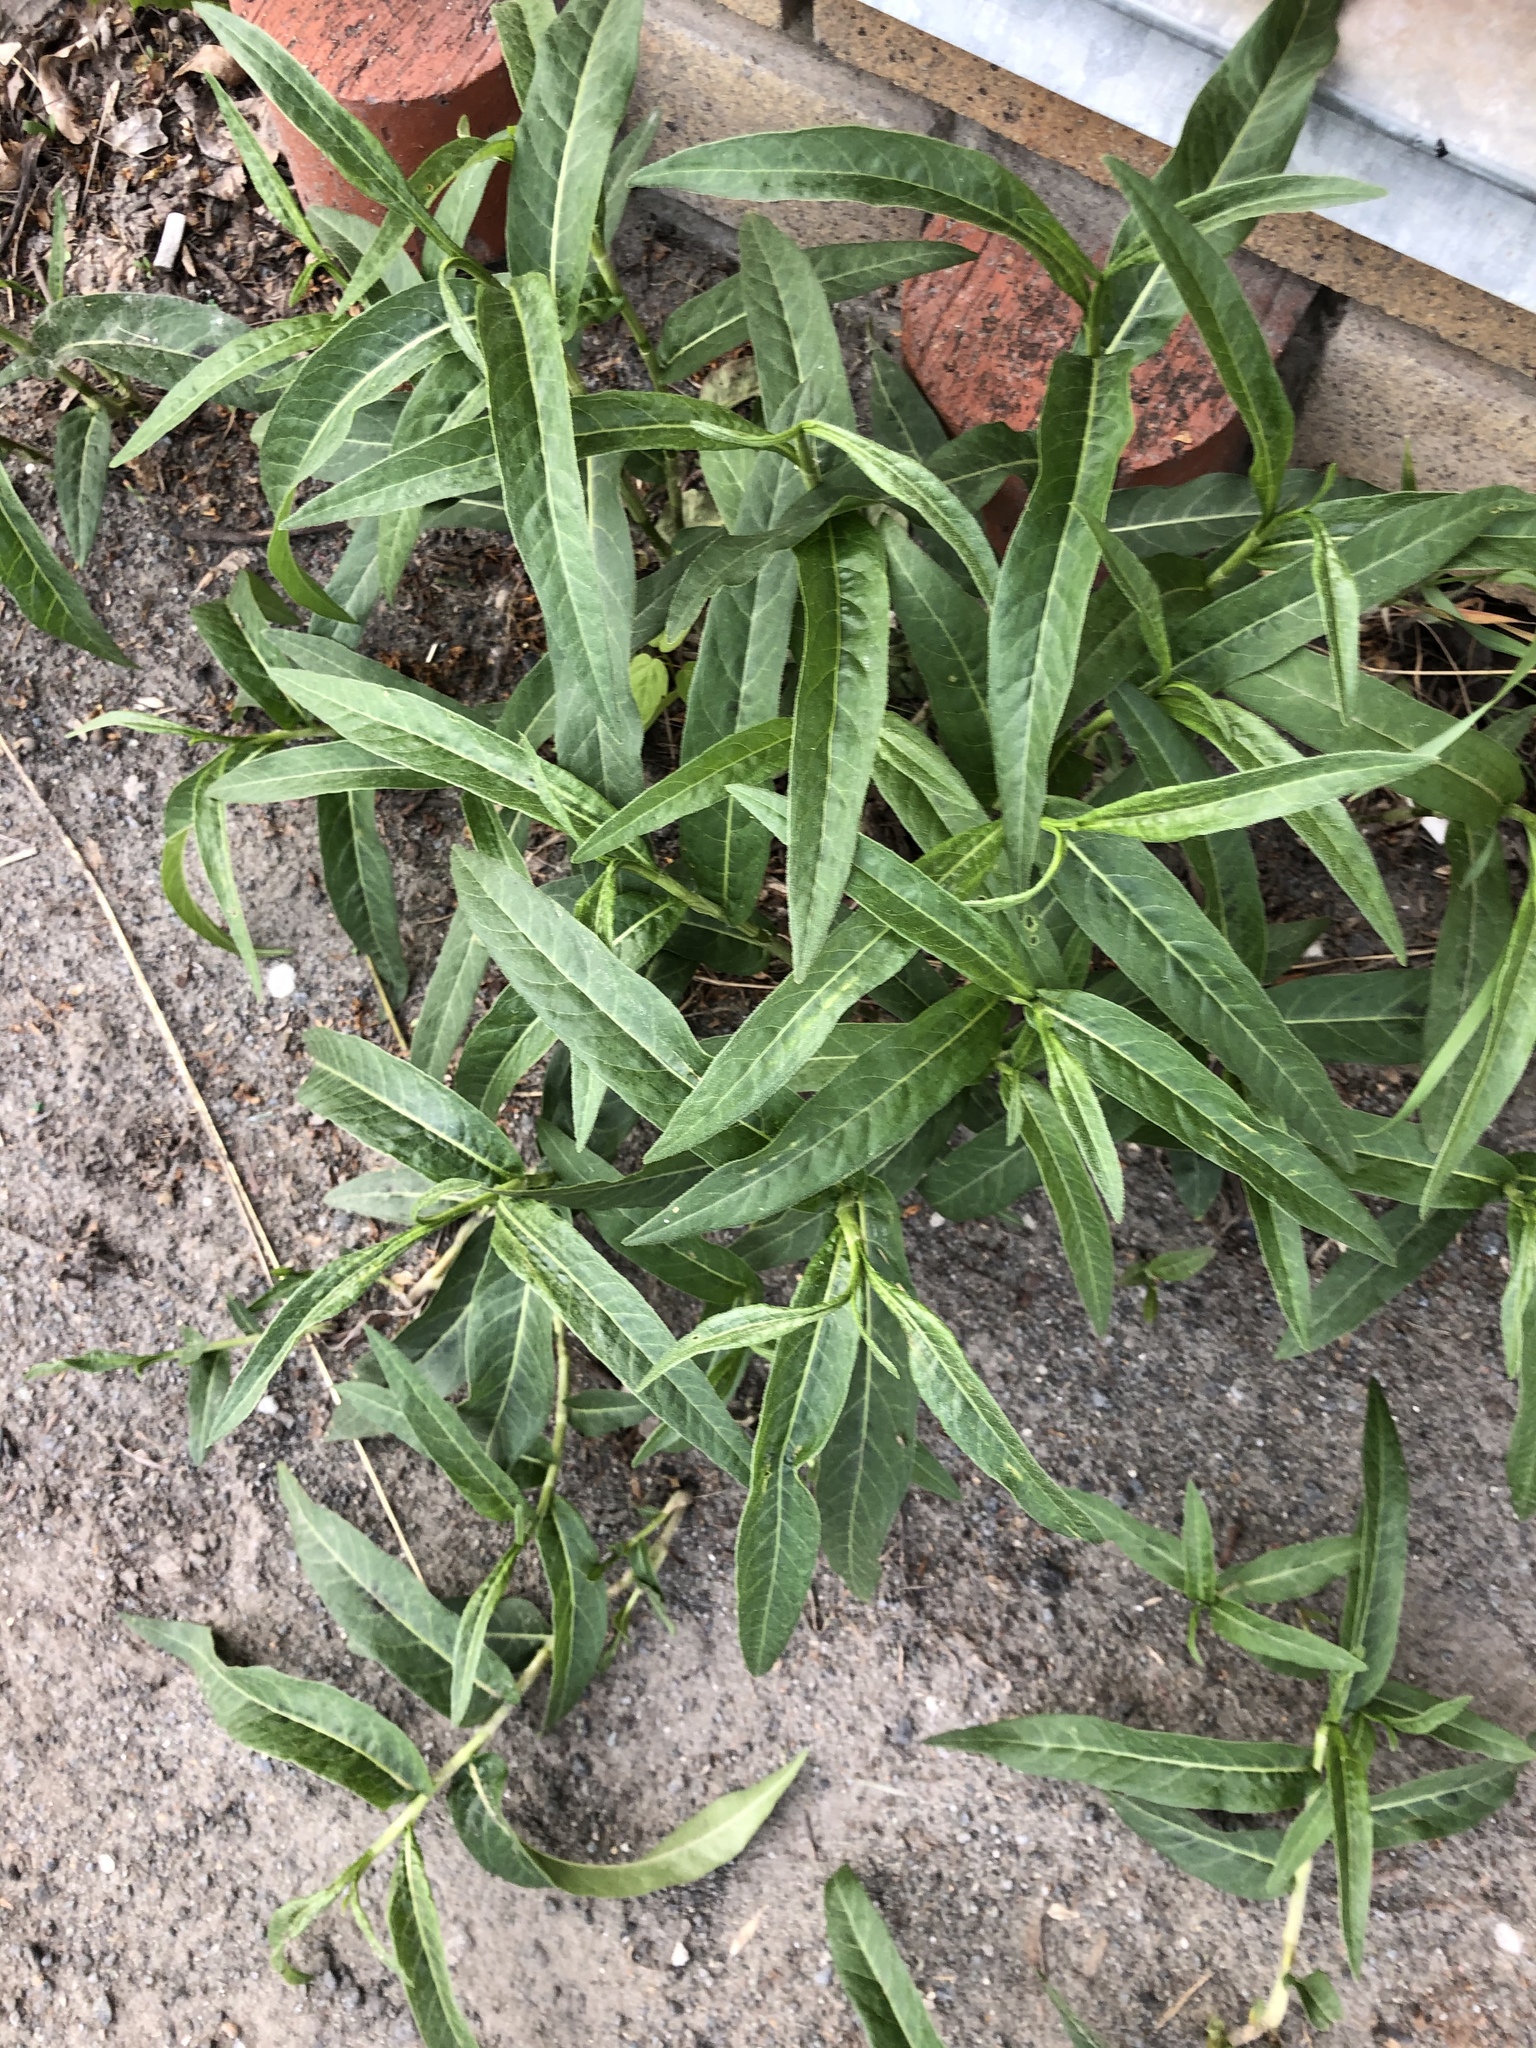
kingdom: Plantae
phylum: Tracheophyta
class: Magnoliopsida
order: Caryophyllales
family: Polygonaceae
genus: Persicaria
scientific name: Persicaria maculosa
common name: Redshank
